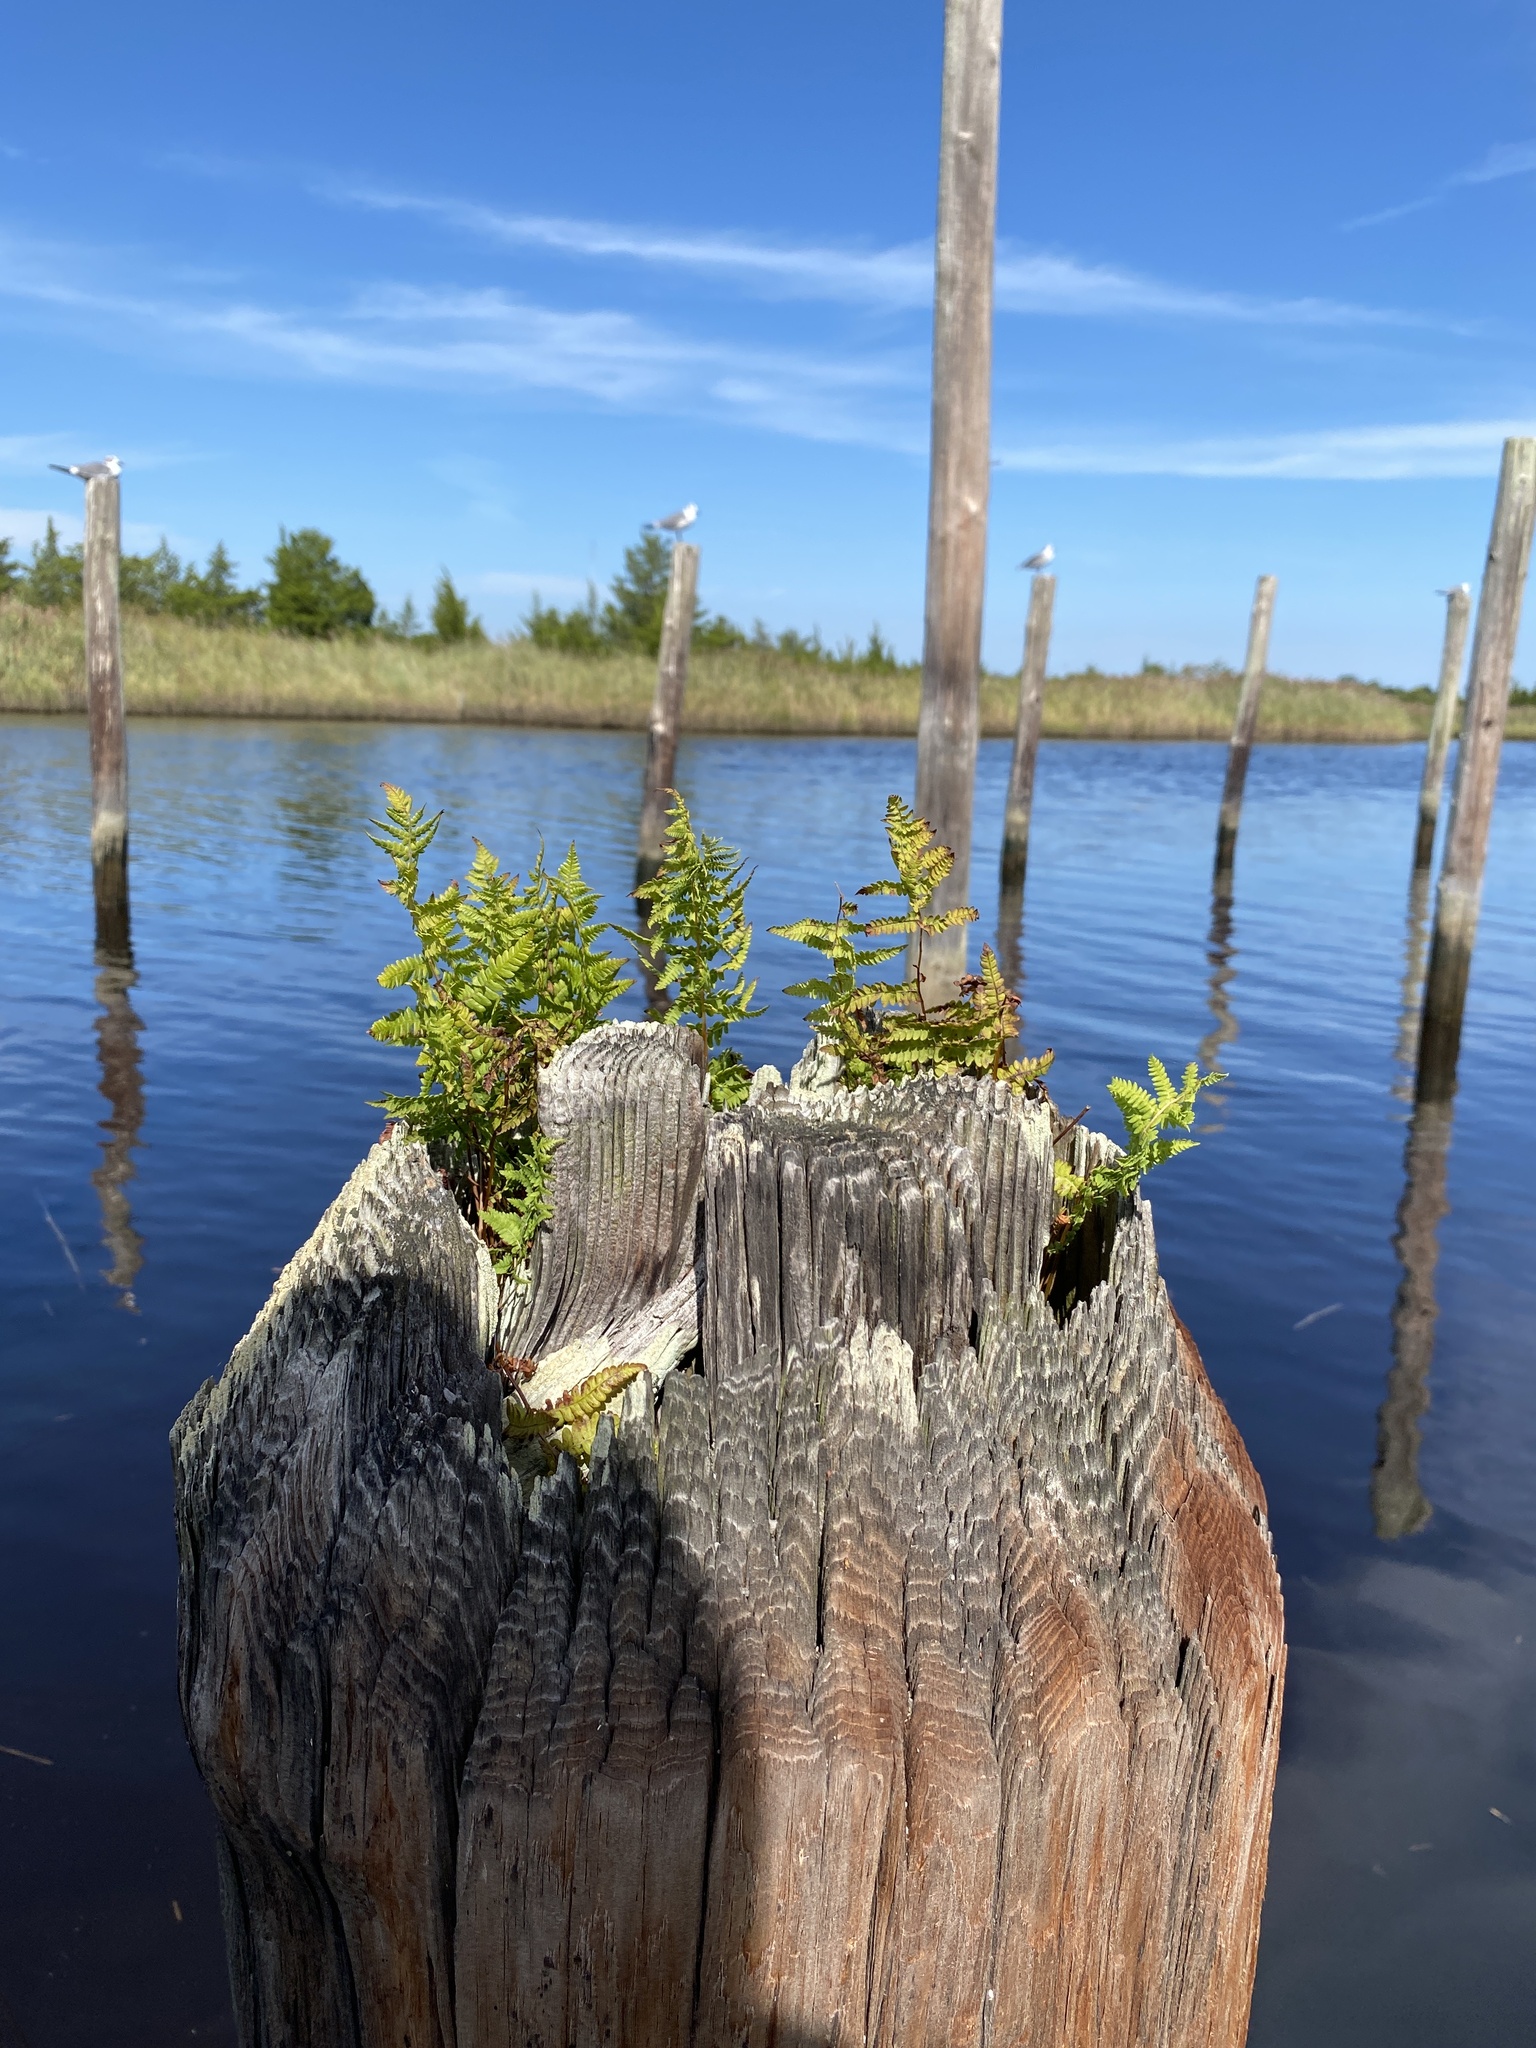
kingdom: Plantae
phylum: Tracheophyta
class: Polypodiopsida
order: Polypodiales
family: Thelypteridaceae
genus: Thelypteris
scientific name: Thelypteris palustris
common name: Marsh fern
